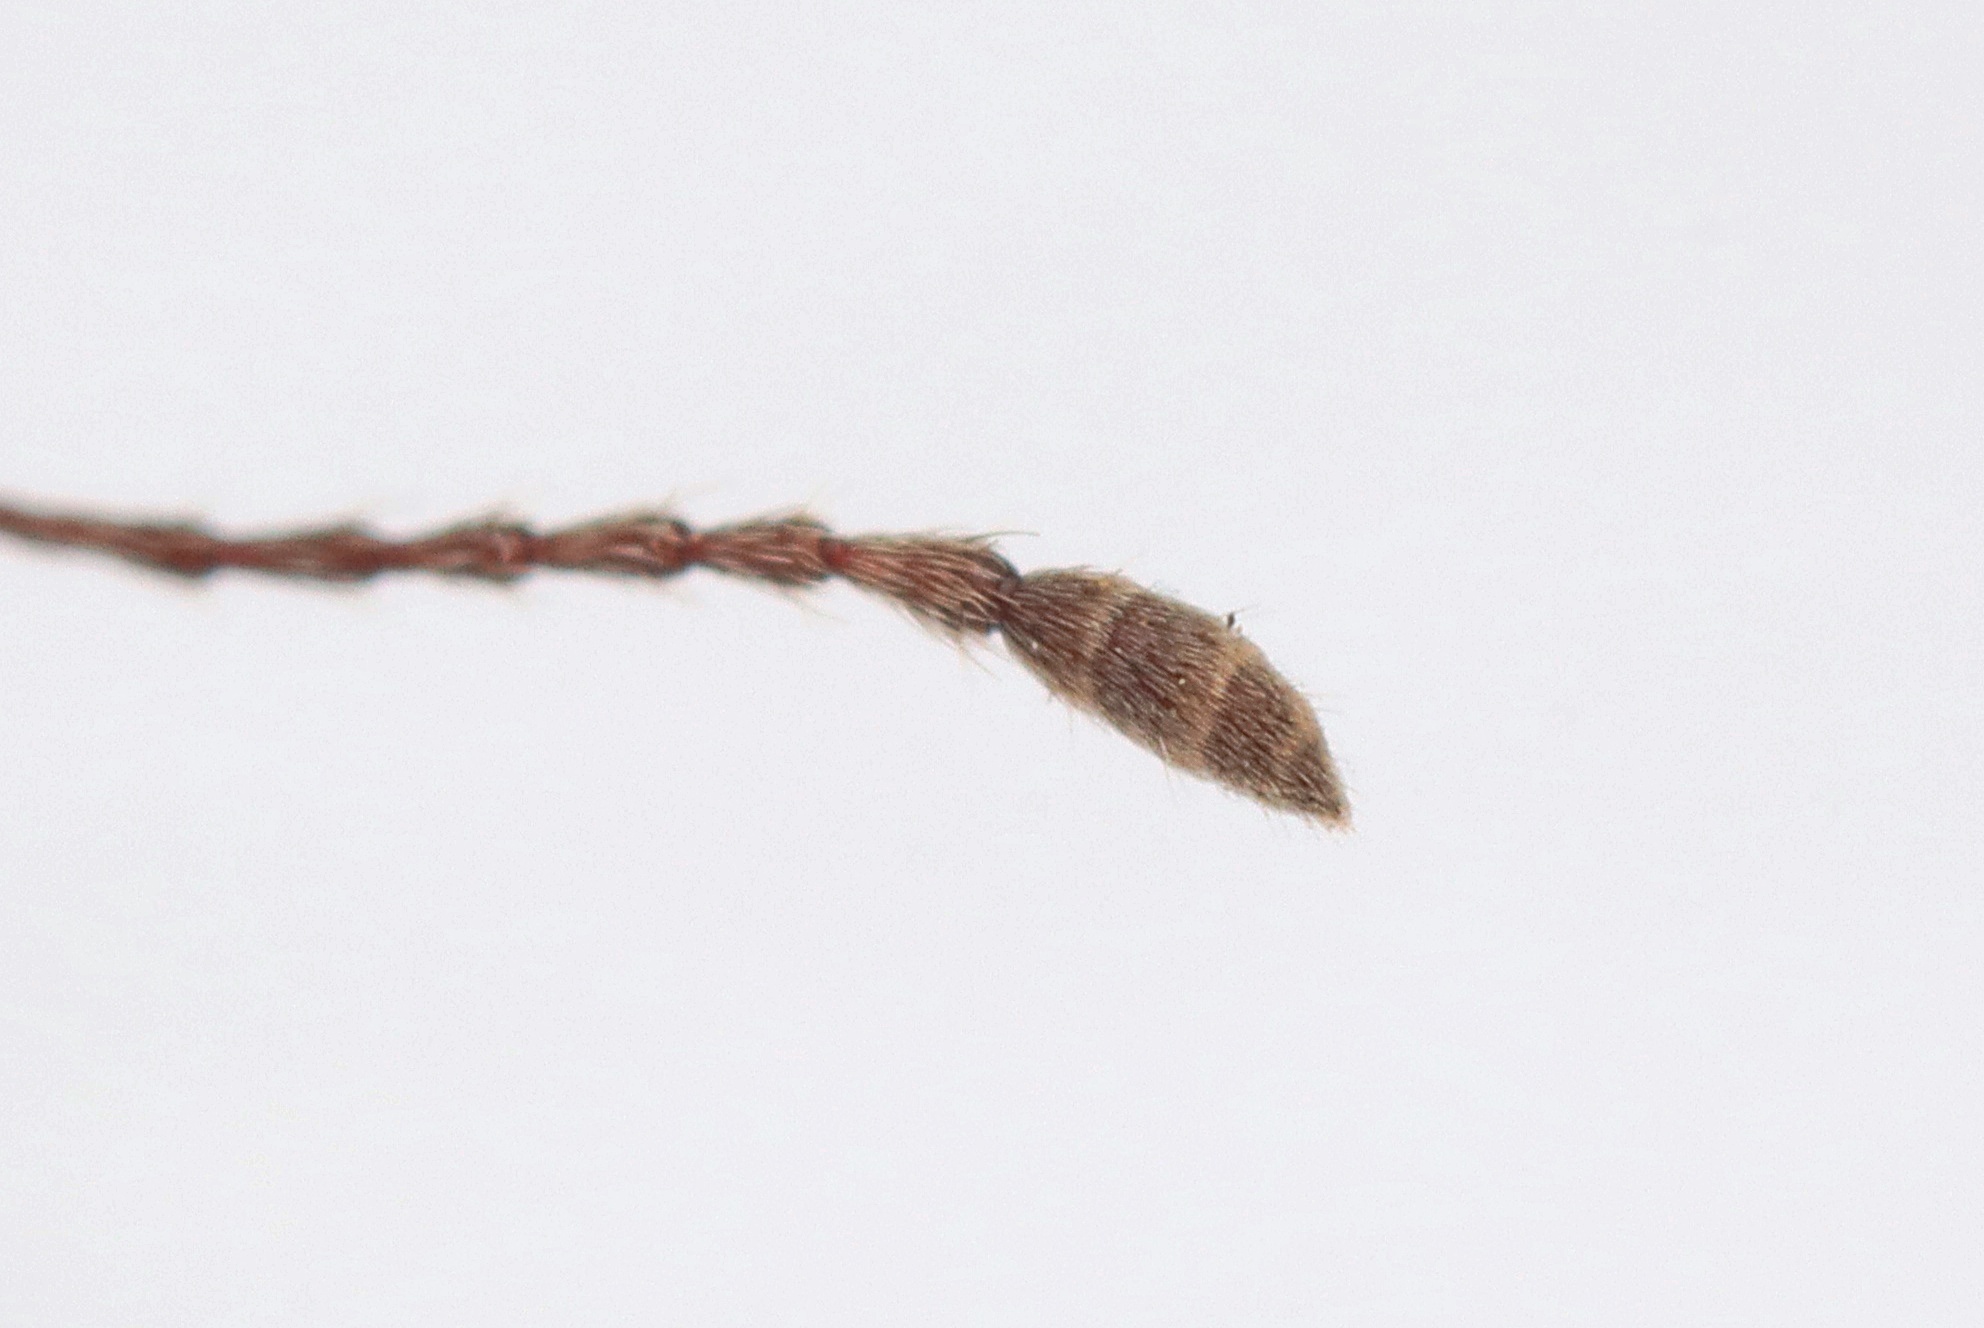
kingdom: Animalia
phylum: Arthropoda
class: Insecta
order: Coleoptera
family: Curculionidae
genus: Naupactus
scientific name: Naupactus cervinus
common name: Fuller rose beetle
